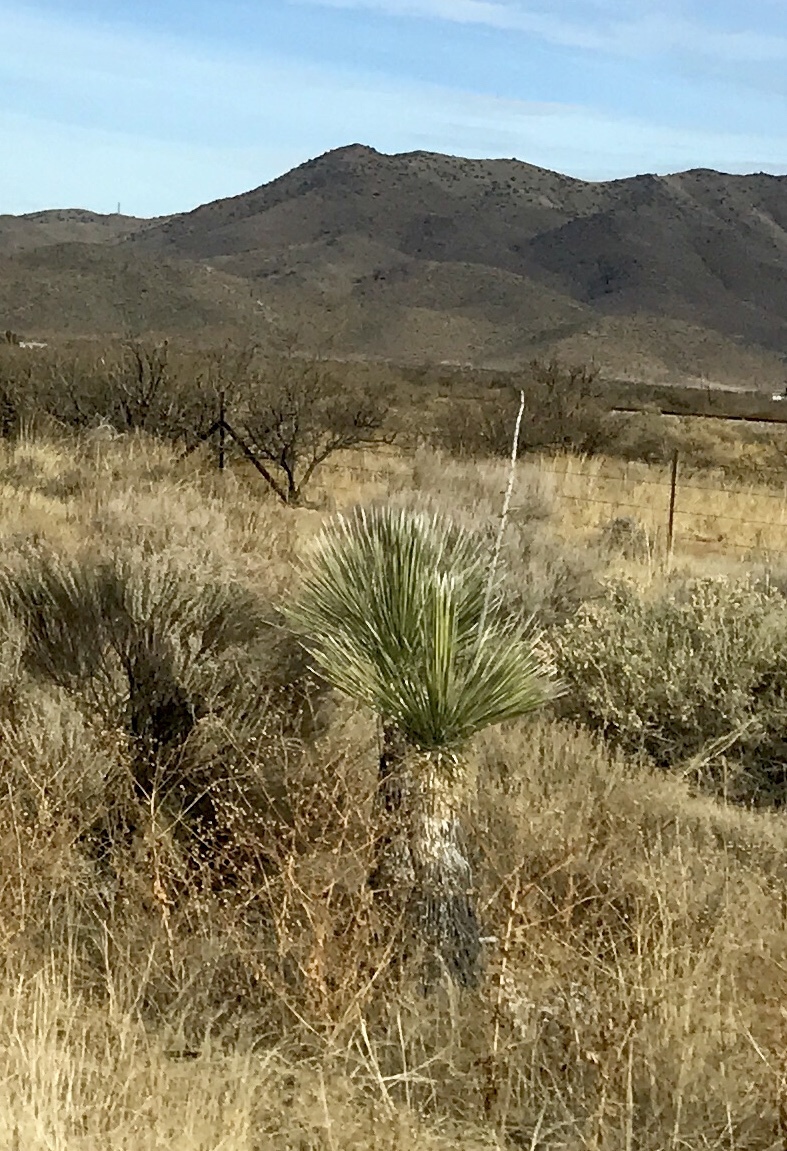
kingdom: Plantae
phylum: Tracheophyta
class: Liliopsida
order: Asparagales
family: Asparagaceae
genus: Yucca
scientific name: Yucca elata
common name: Palmella
